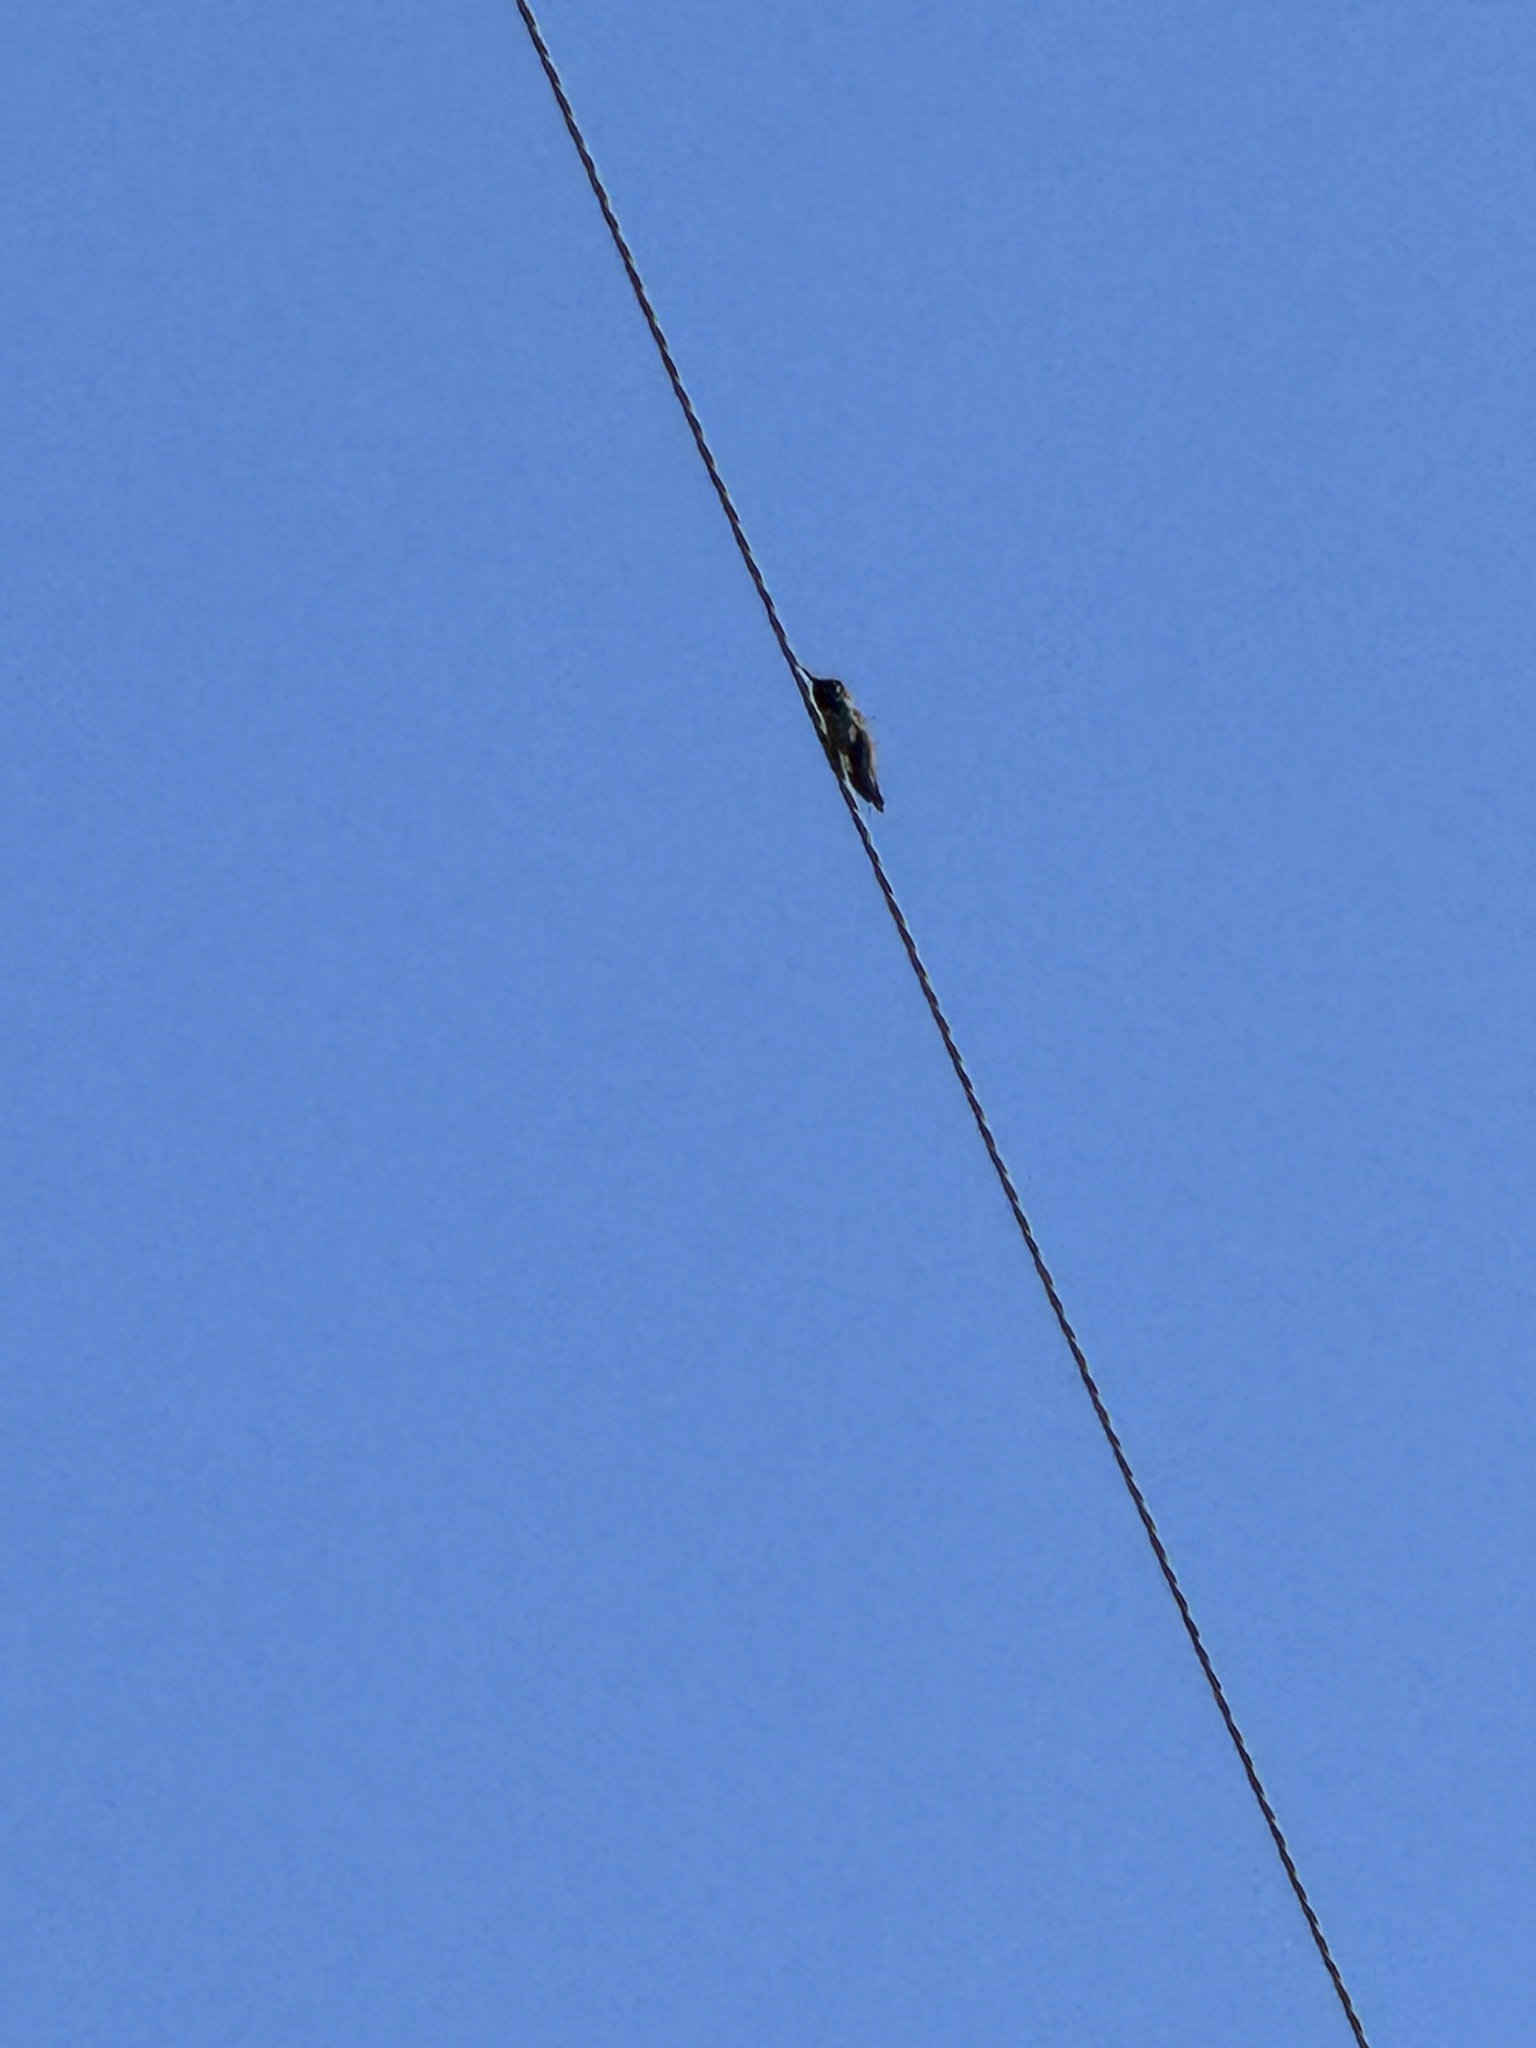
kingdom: Animalia
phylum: Chordata
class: Aves
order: Apodiformes
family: Trochilidae
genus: Calypte
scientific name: Calypte anna
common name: Anna's hummingbird
